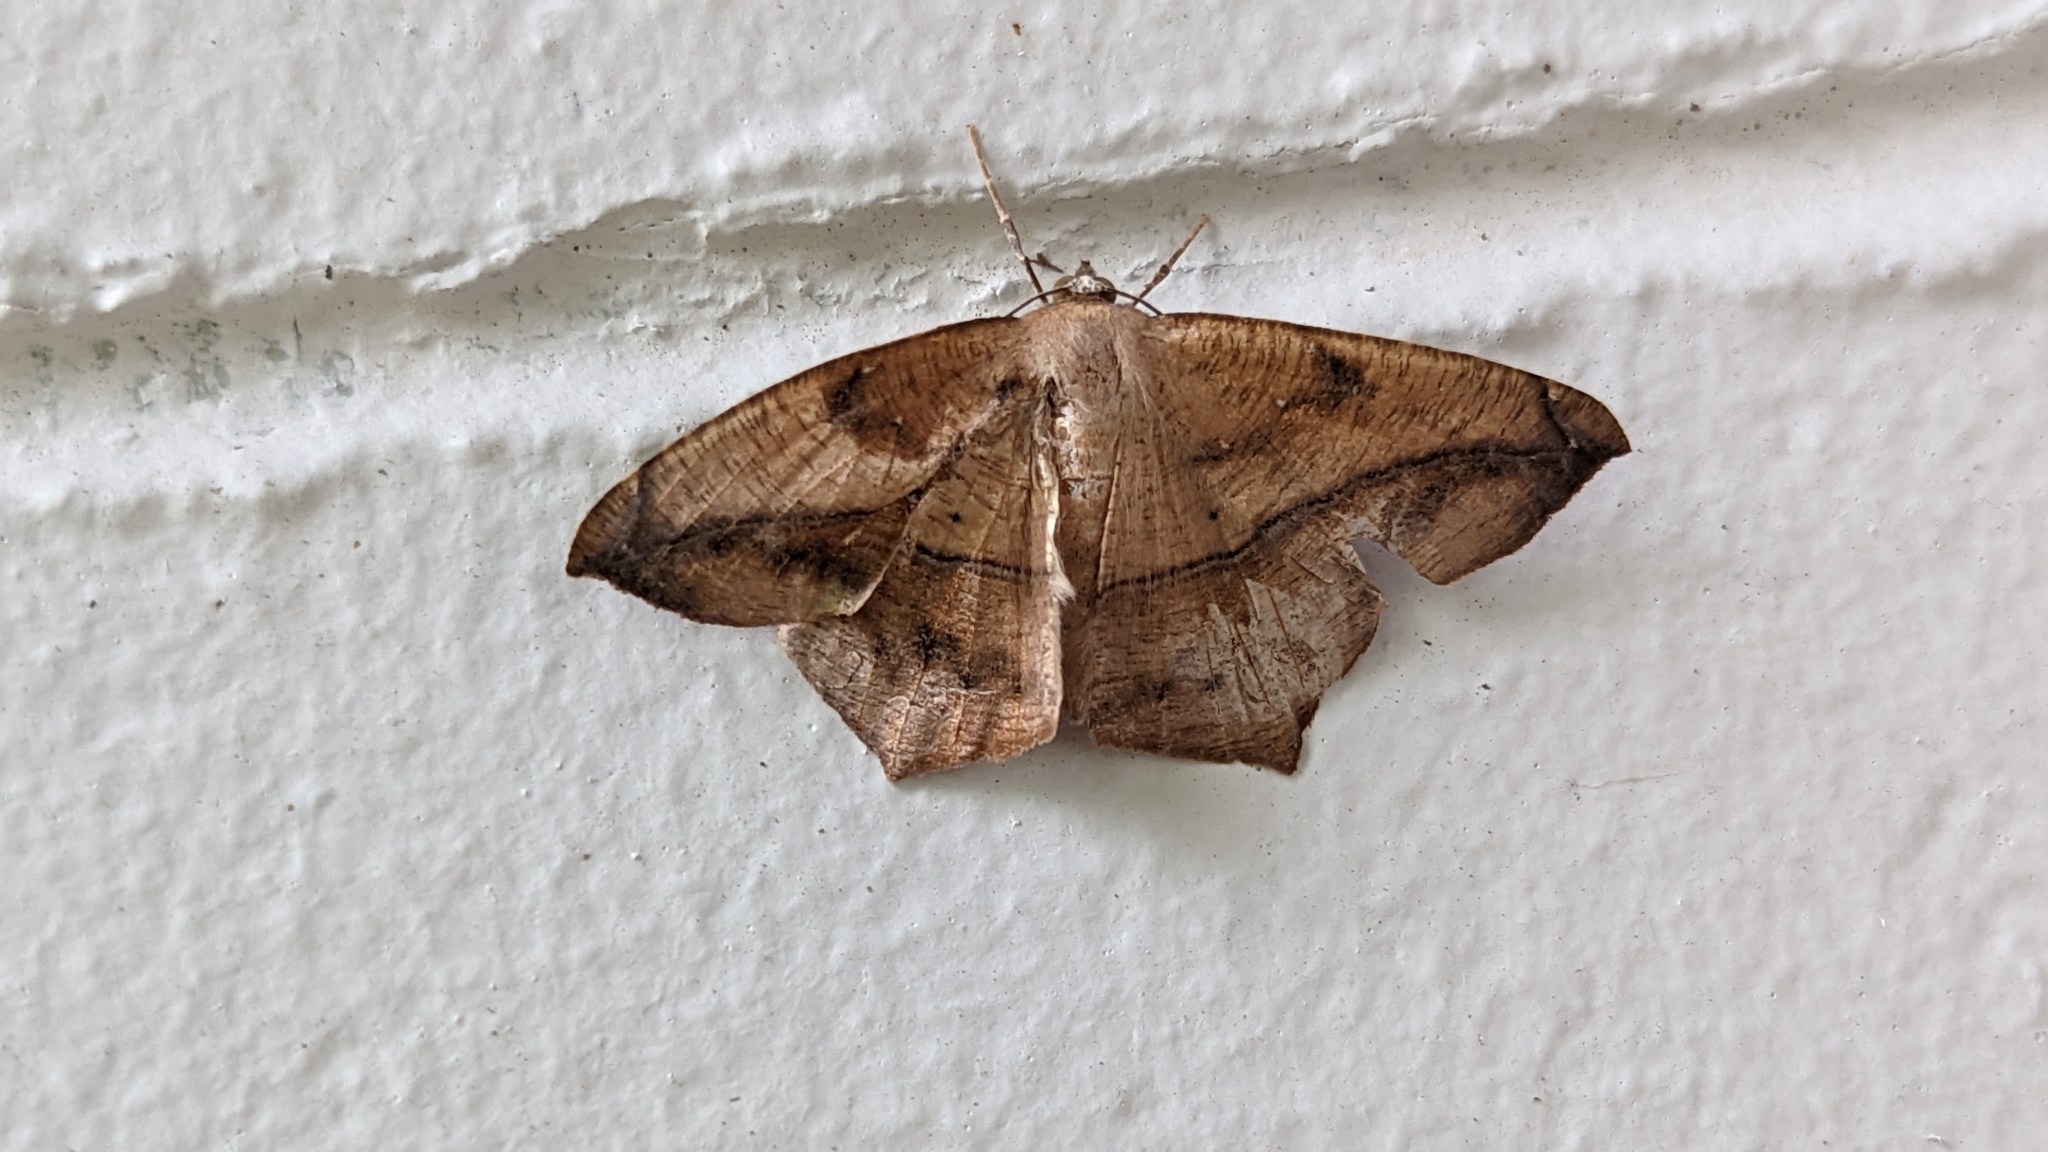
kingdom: Animalia
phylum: Arthropoda
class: Insecta
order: Lepidoptera
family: Geometridae
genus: Prochoerodes
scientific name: Prochoerodes lineola
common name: Large maple spanworm
